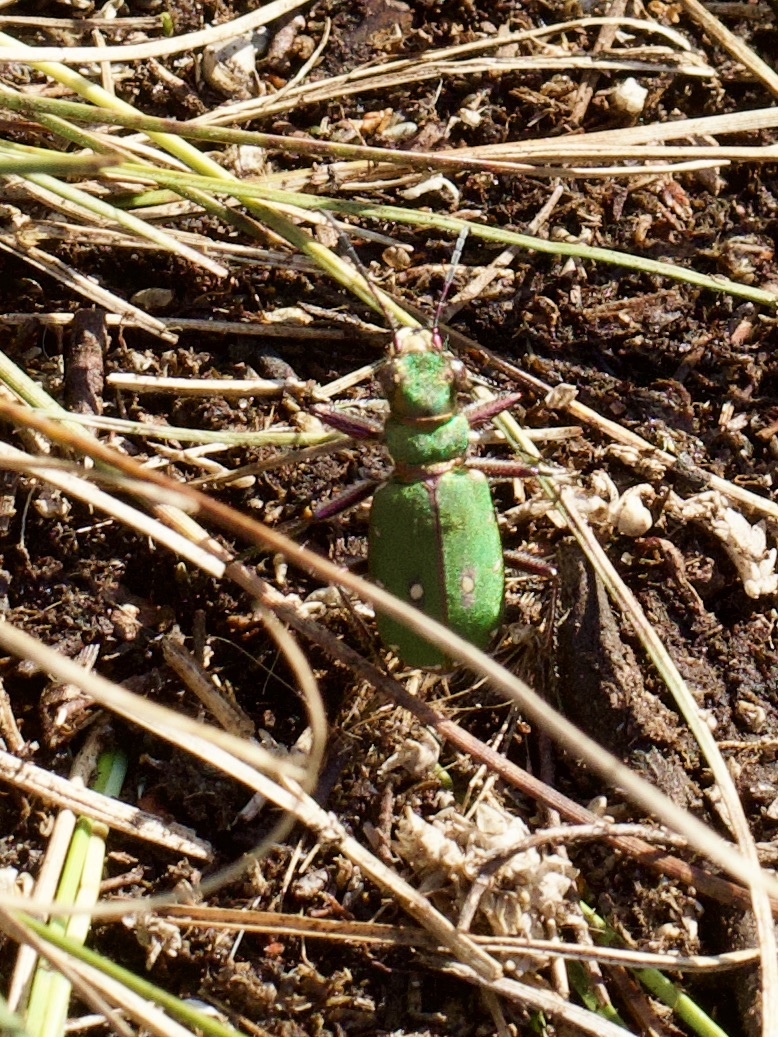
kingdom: Animalia
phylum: Arthropoda
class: Insecta
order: Coleoptera
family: Carabidae
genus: Cicindela
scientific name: Cicindela campestris
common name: Common tiger beetle
